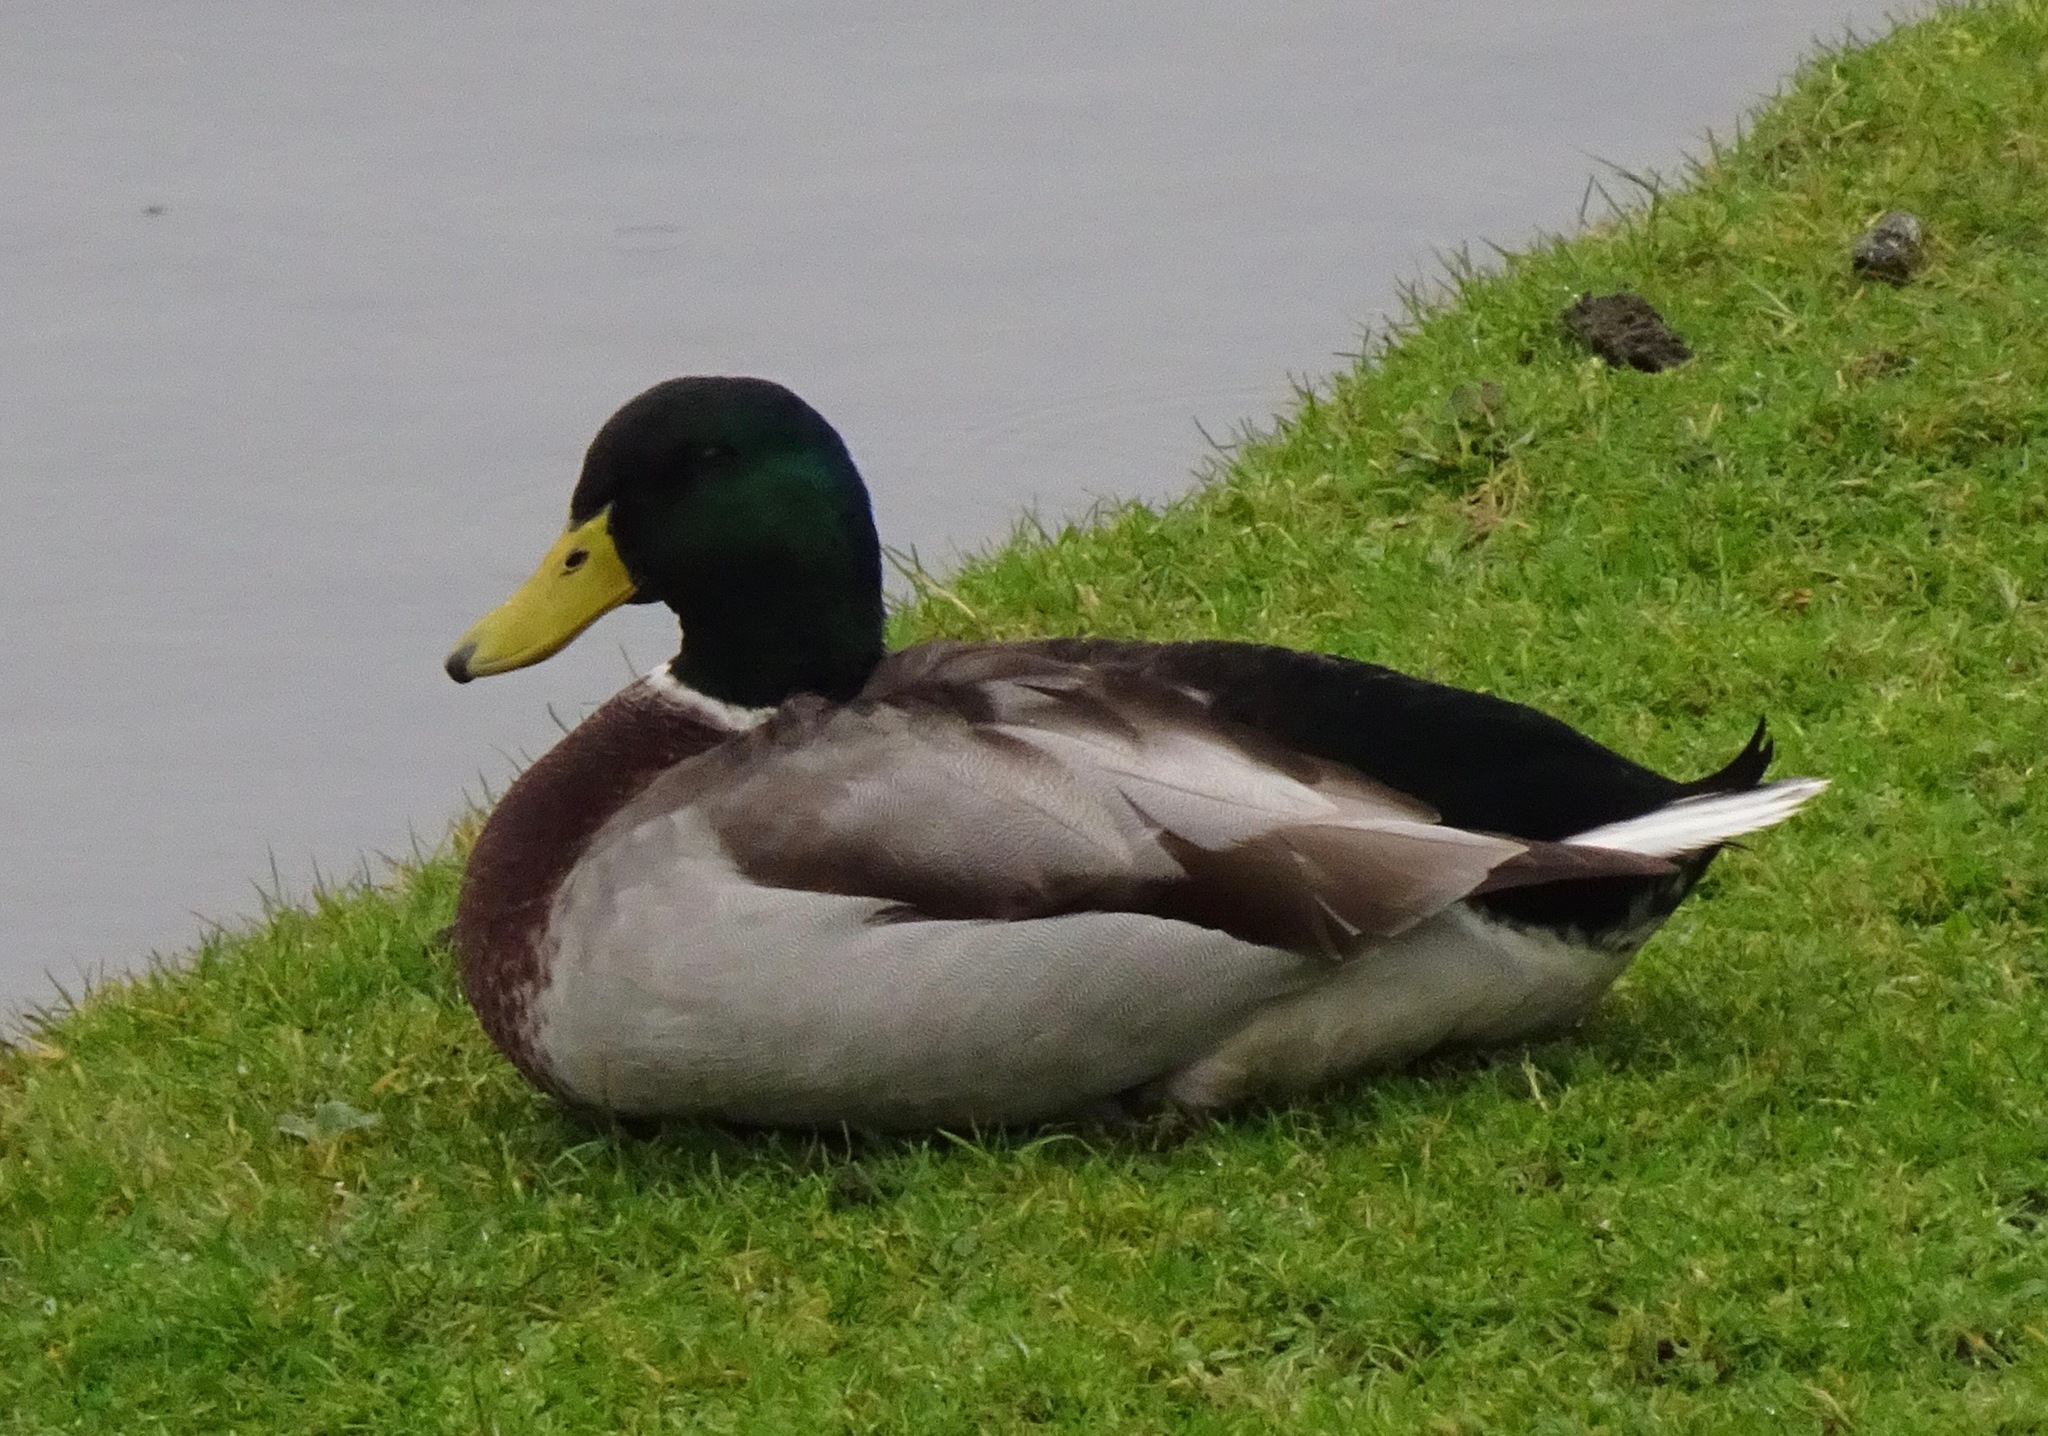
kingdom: Animalia
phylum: Chordata
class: Aves
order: Anseriformes
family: Anatidae
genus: Anas
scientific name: Anas platyrhynchos
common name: Mallard
